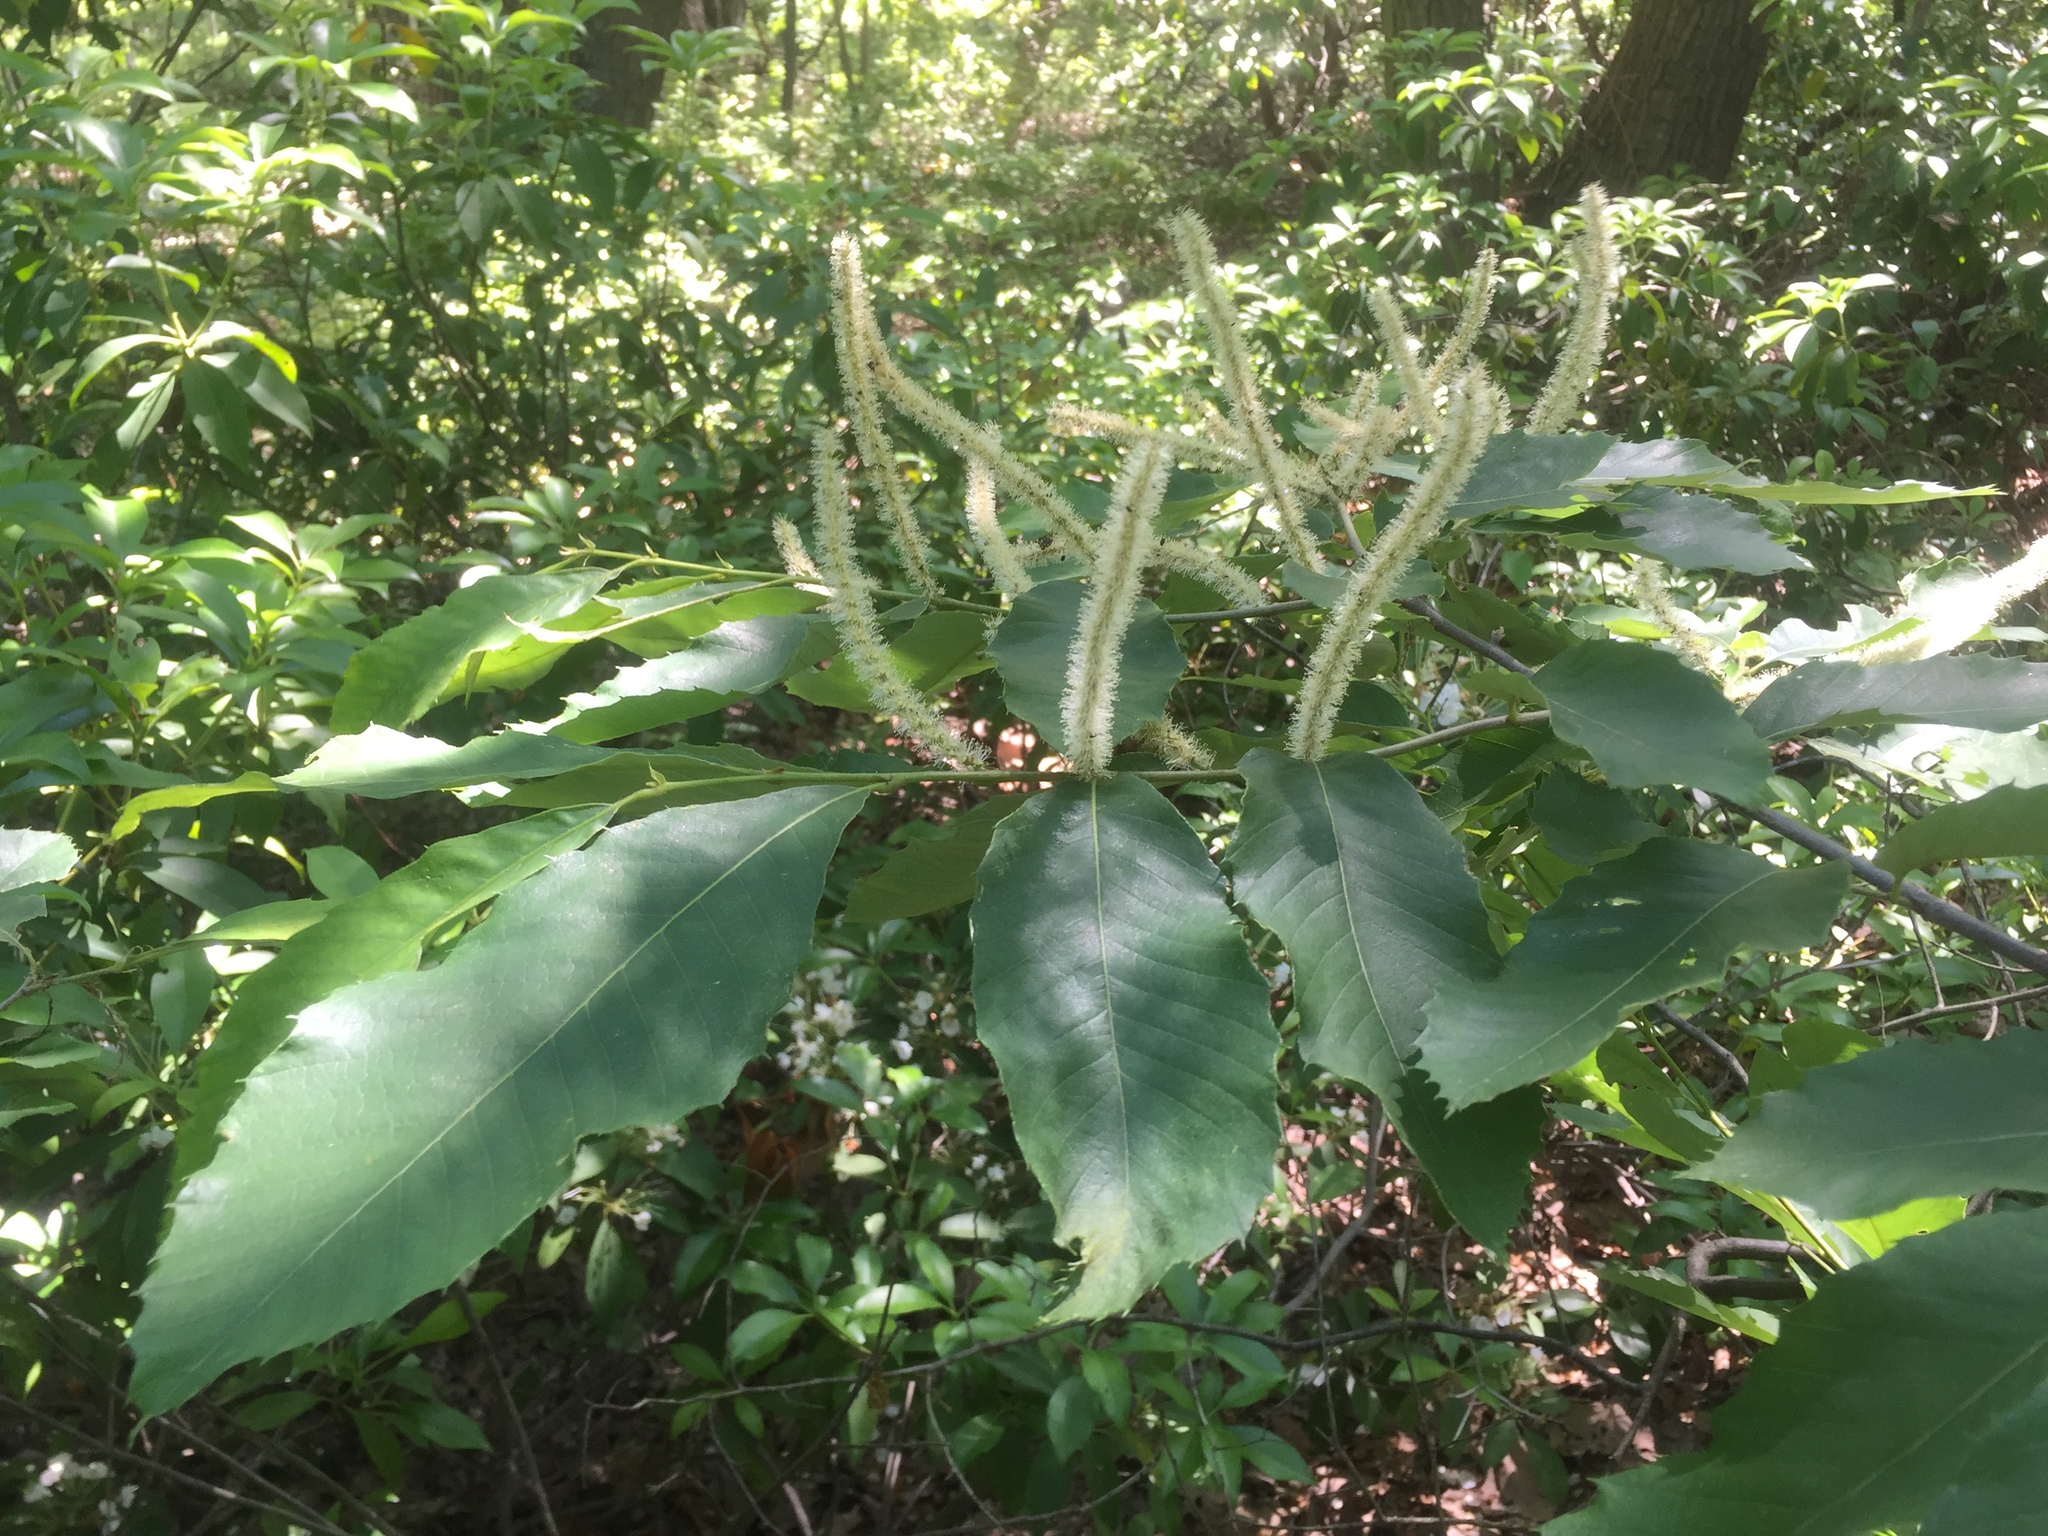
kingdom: Plantae
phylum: Tracheophyta
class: Magnoliopsida
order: Fagales
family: Fagaceae
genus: Castanea
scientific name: Castanea pumila
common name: Chinkapin
